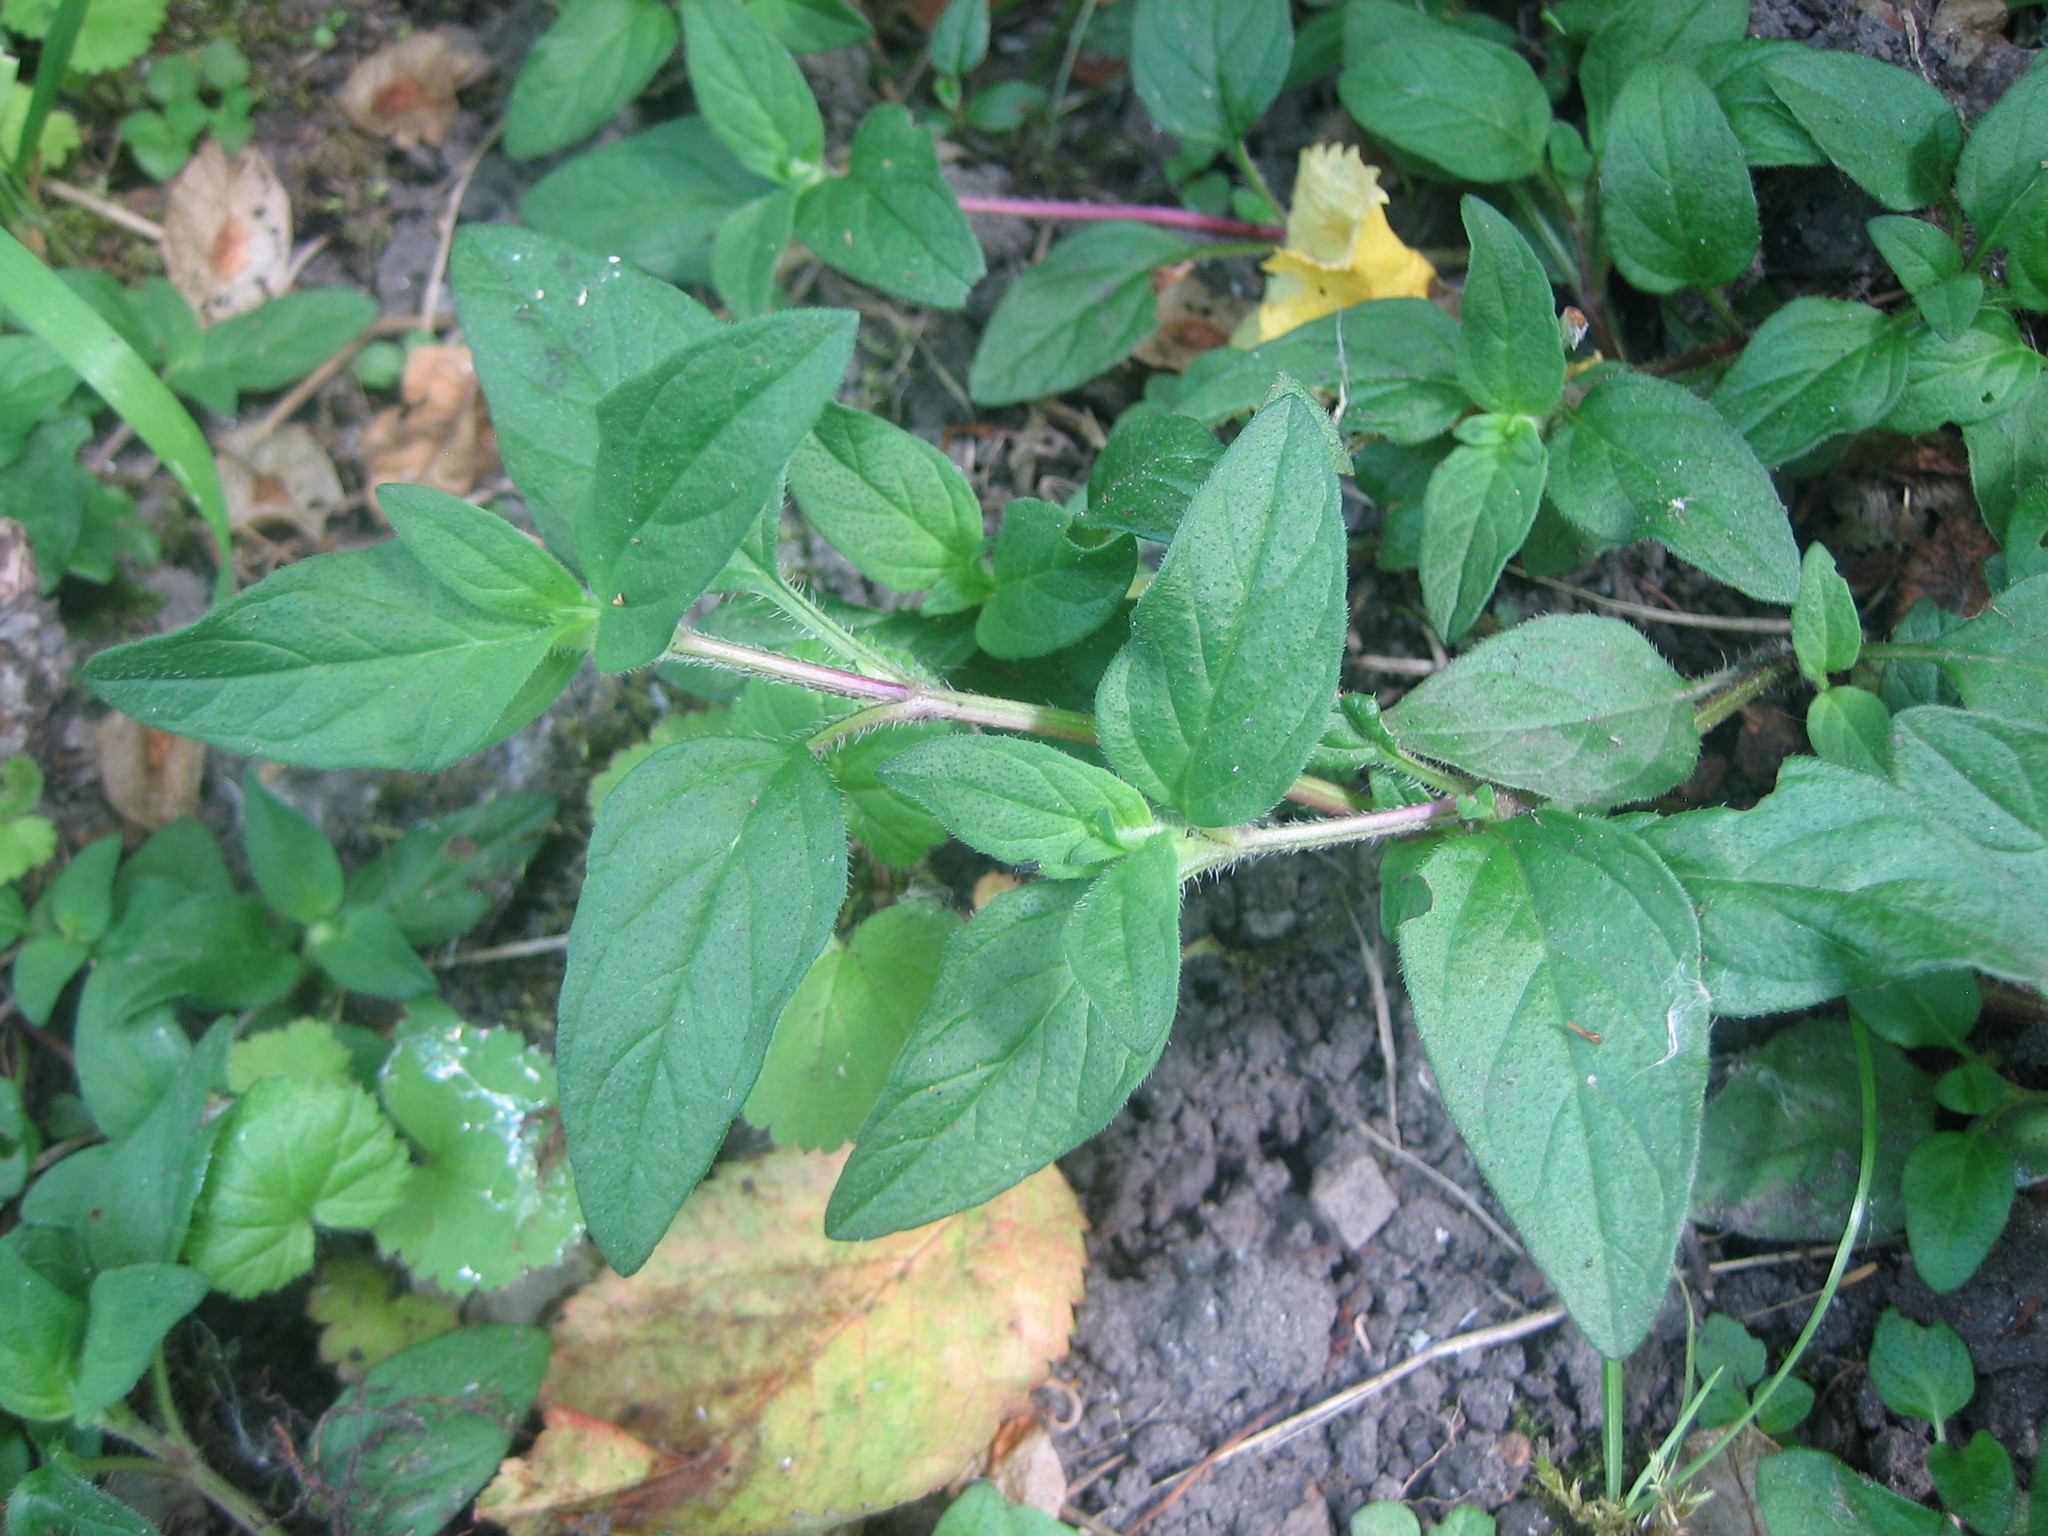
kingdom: Plantae
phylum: Tracheophyta
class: Magnoliopsida
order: Lamiales
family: Lamiaceae
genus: Prunella
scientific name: Prunella vulgaris
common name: Heal-all
